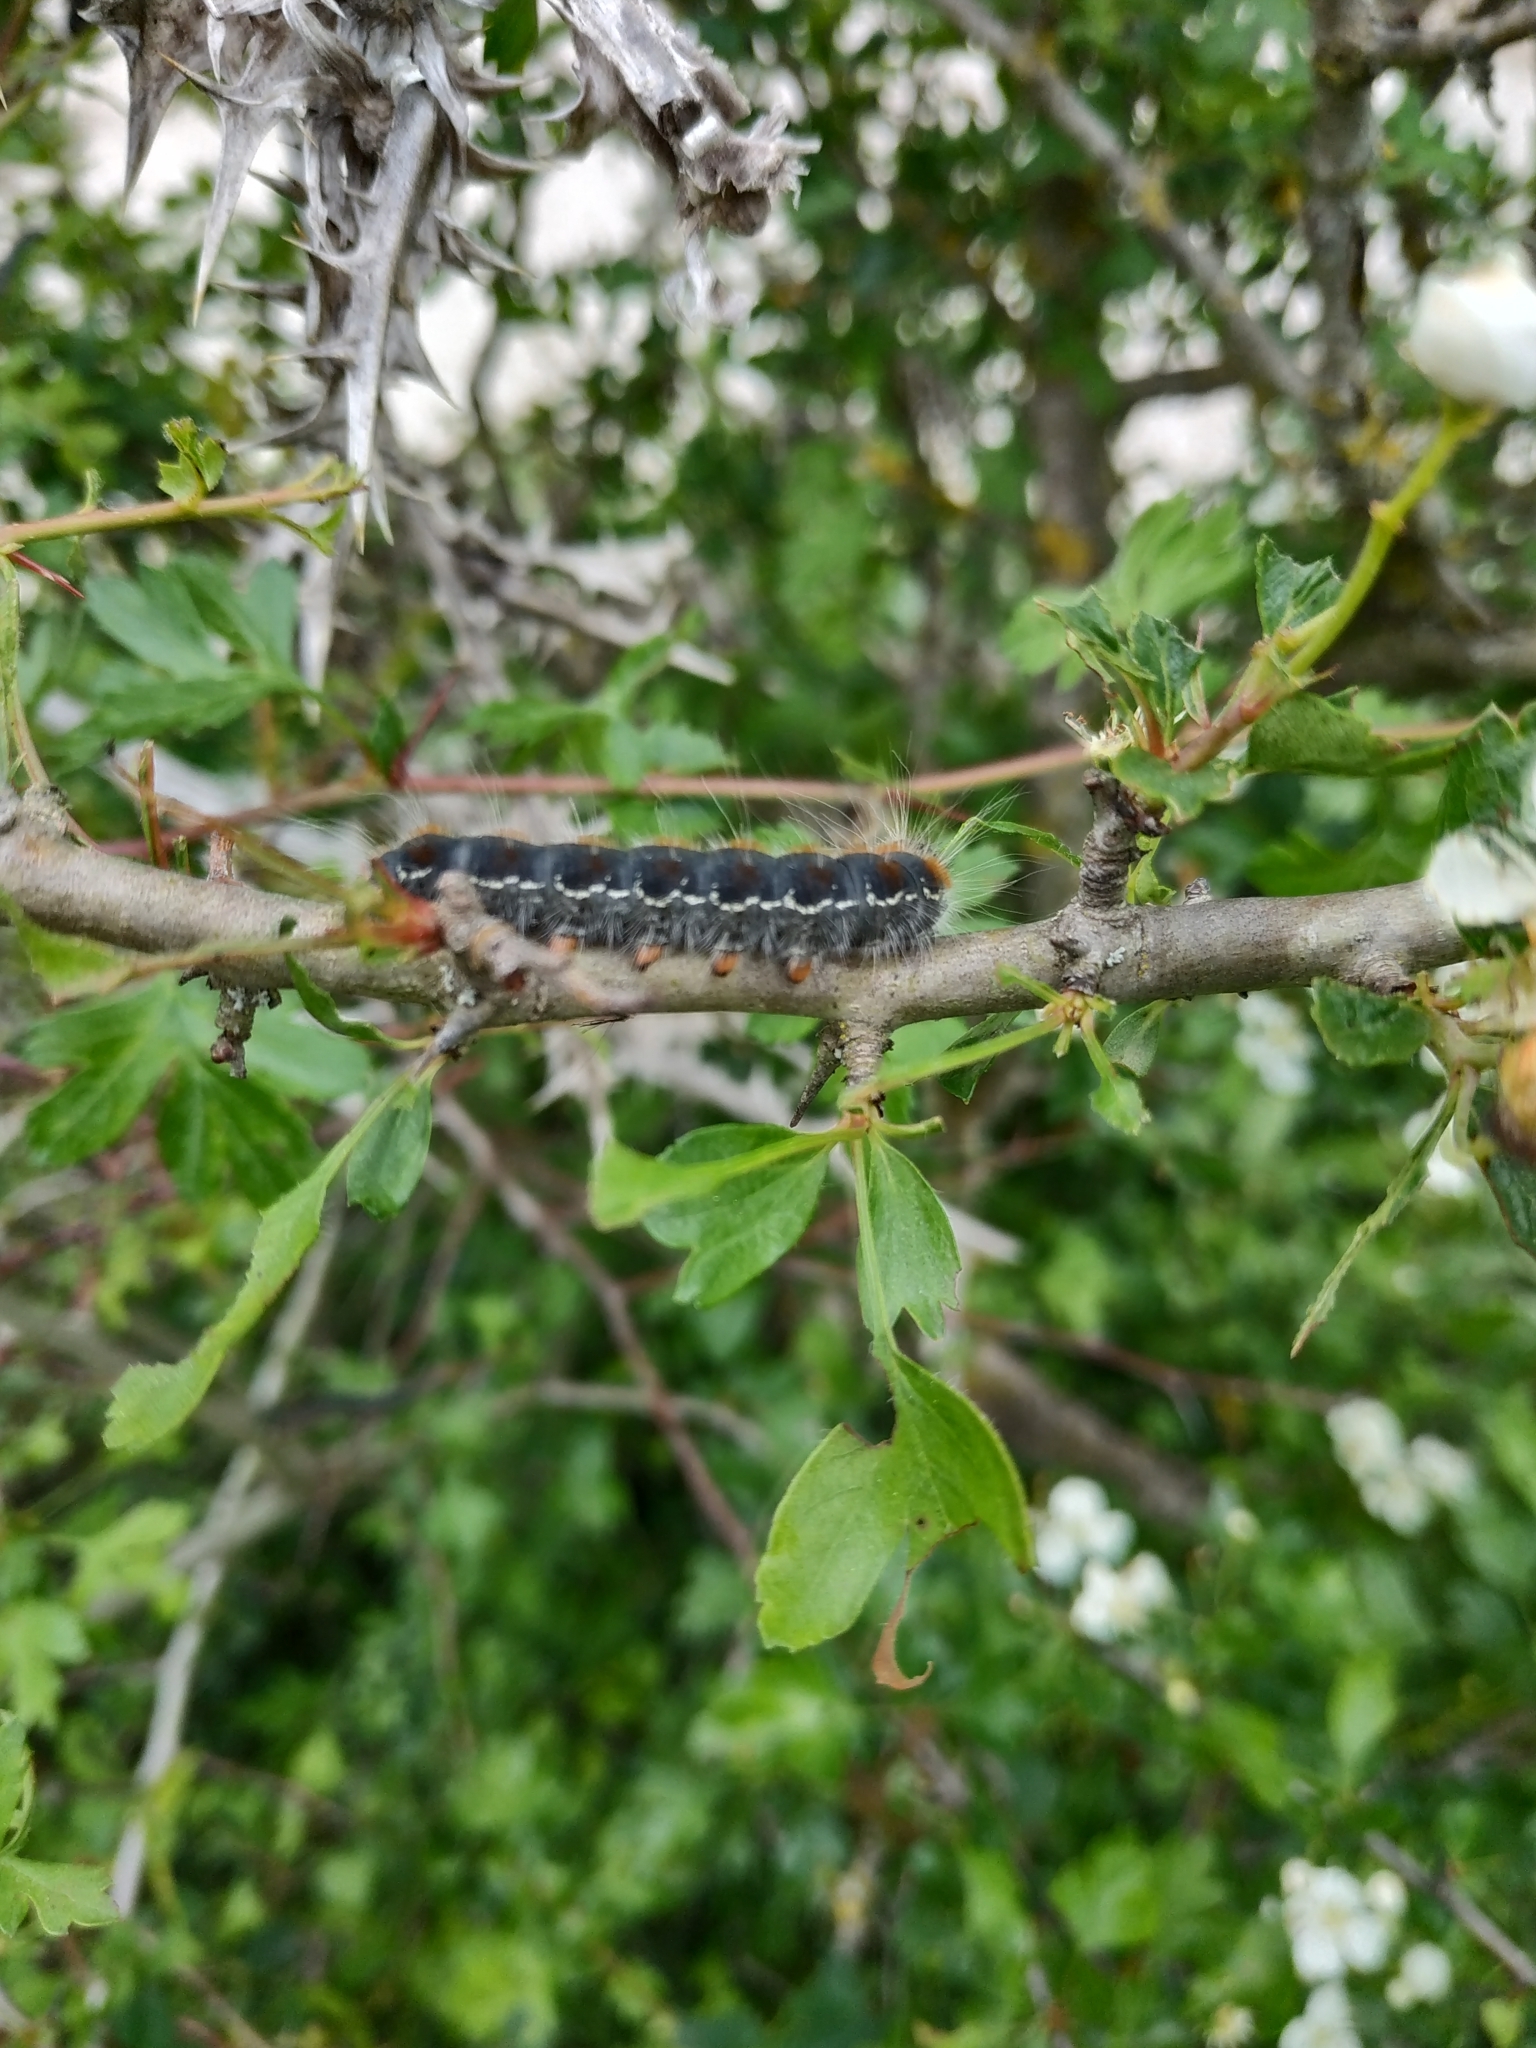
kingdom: Animalia
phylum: Arthropoda
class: Insecta
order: Lepidoptera
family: Lasiocampidae
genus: Eriogaster
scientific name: Eriogaster lanestris
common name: Small eggar
